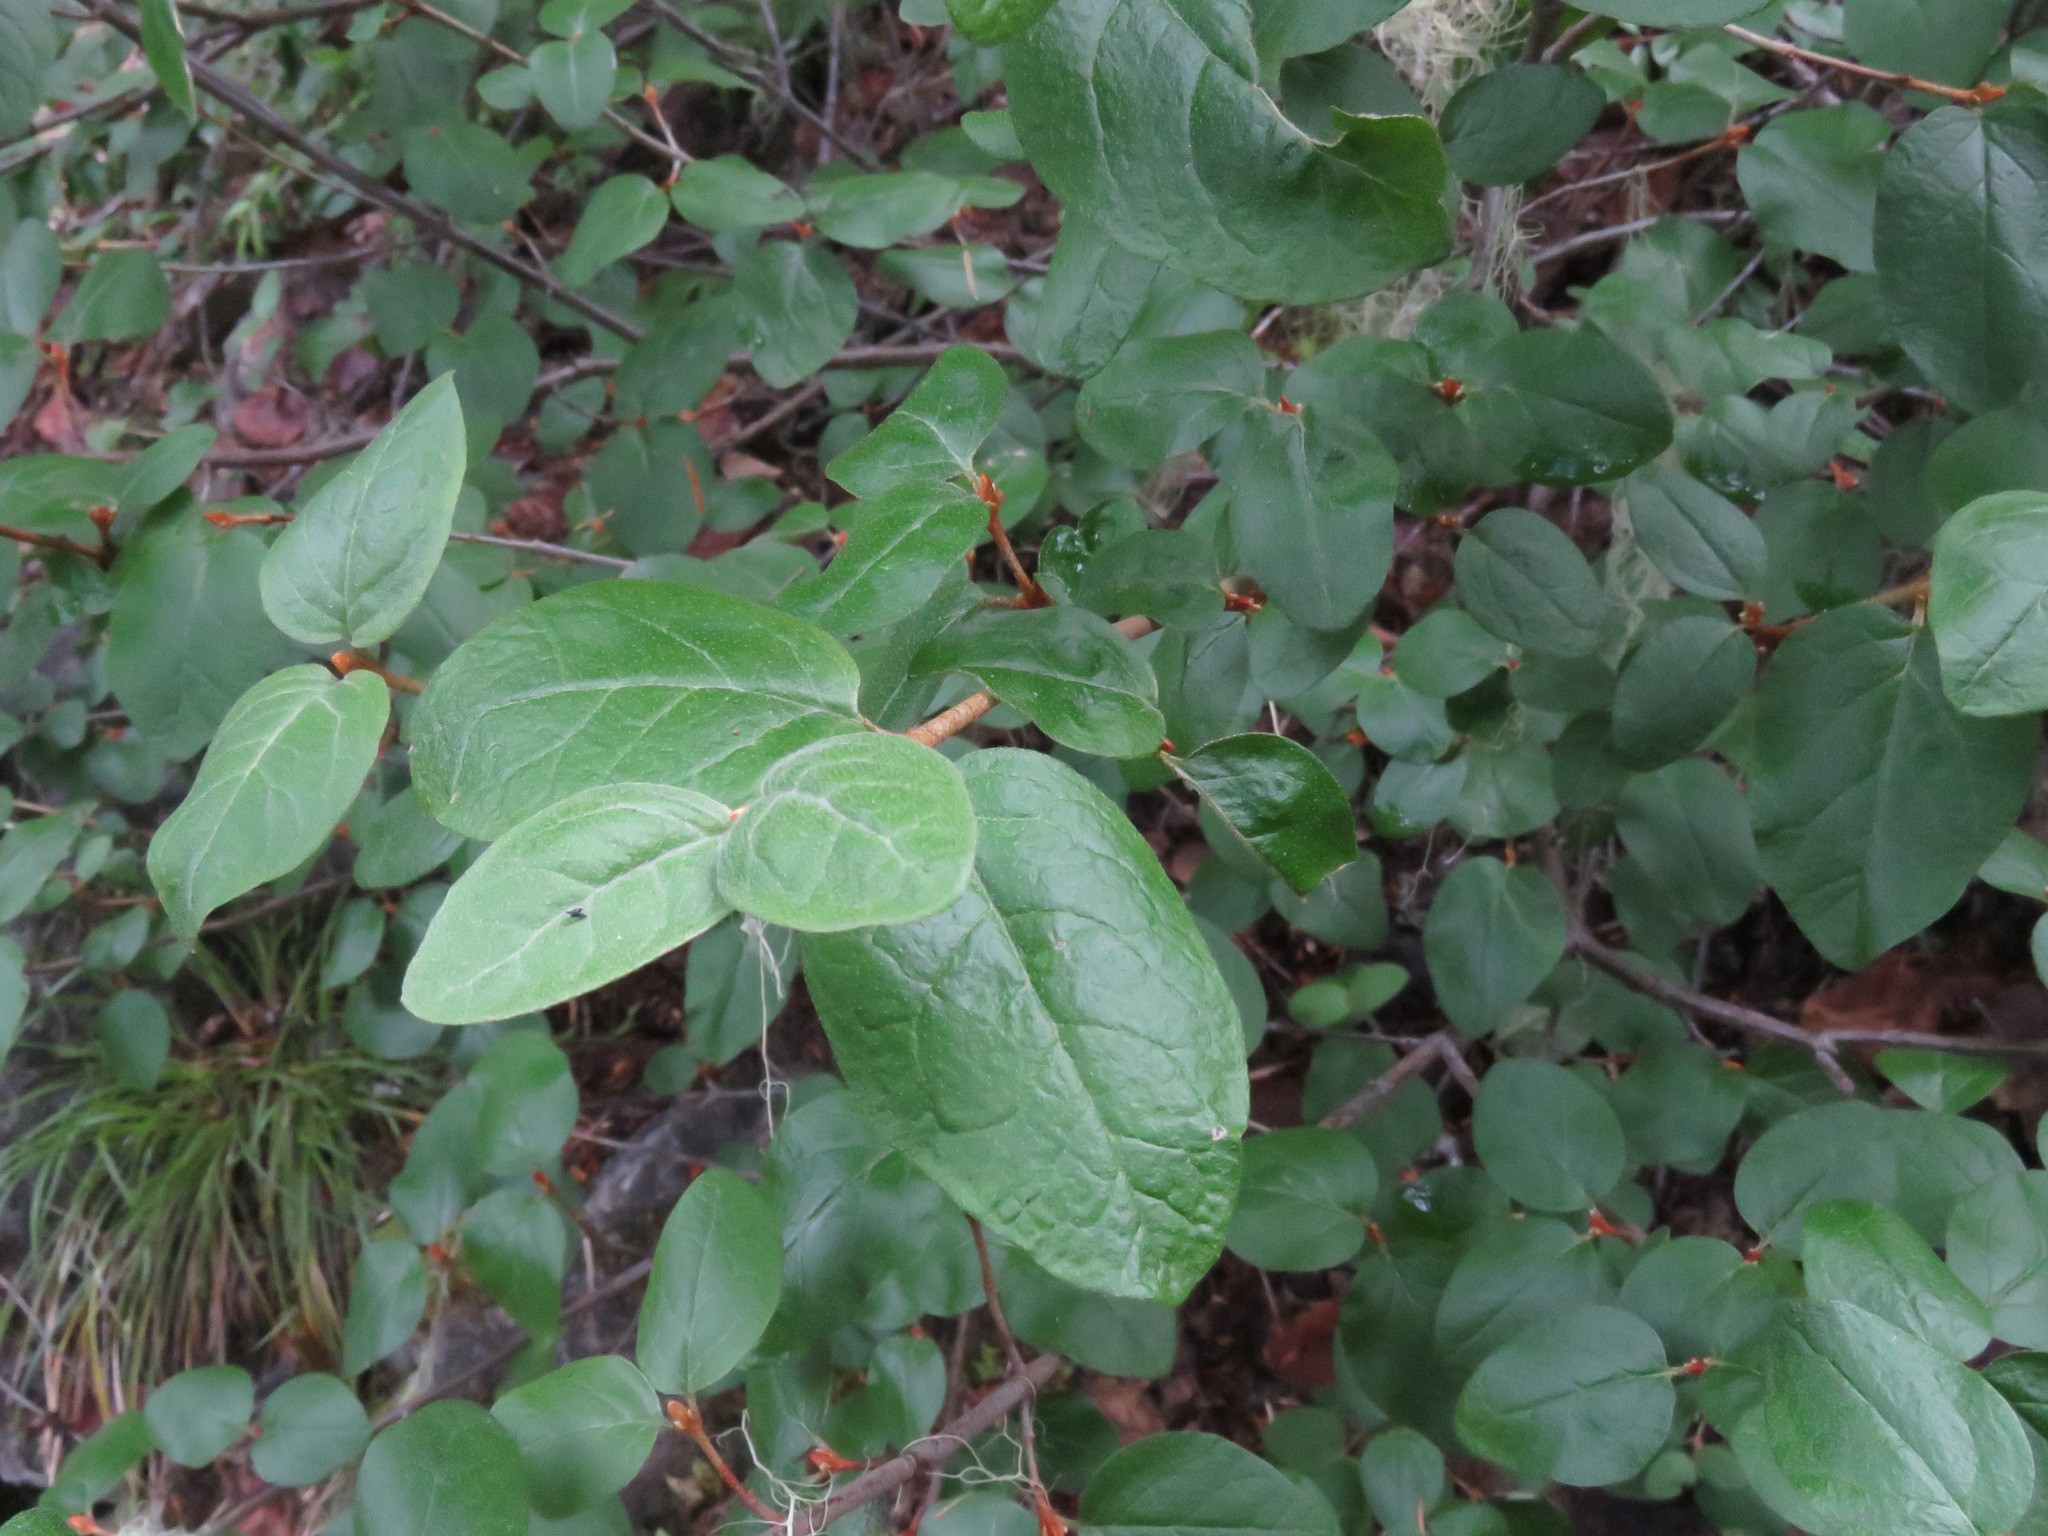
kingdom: Plantae
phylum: Tracheophyta
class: Magnoliopsida
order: Rosales
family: Elaeagnaceae
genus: Shepherdia
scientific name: Shepherdia canadensis
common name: Soapberry
